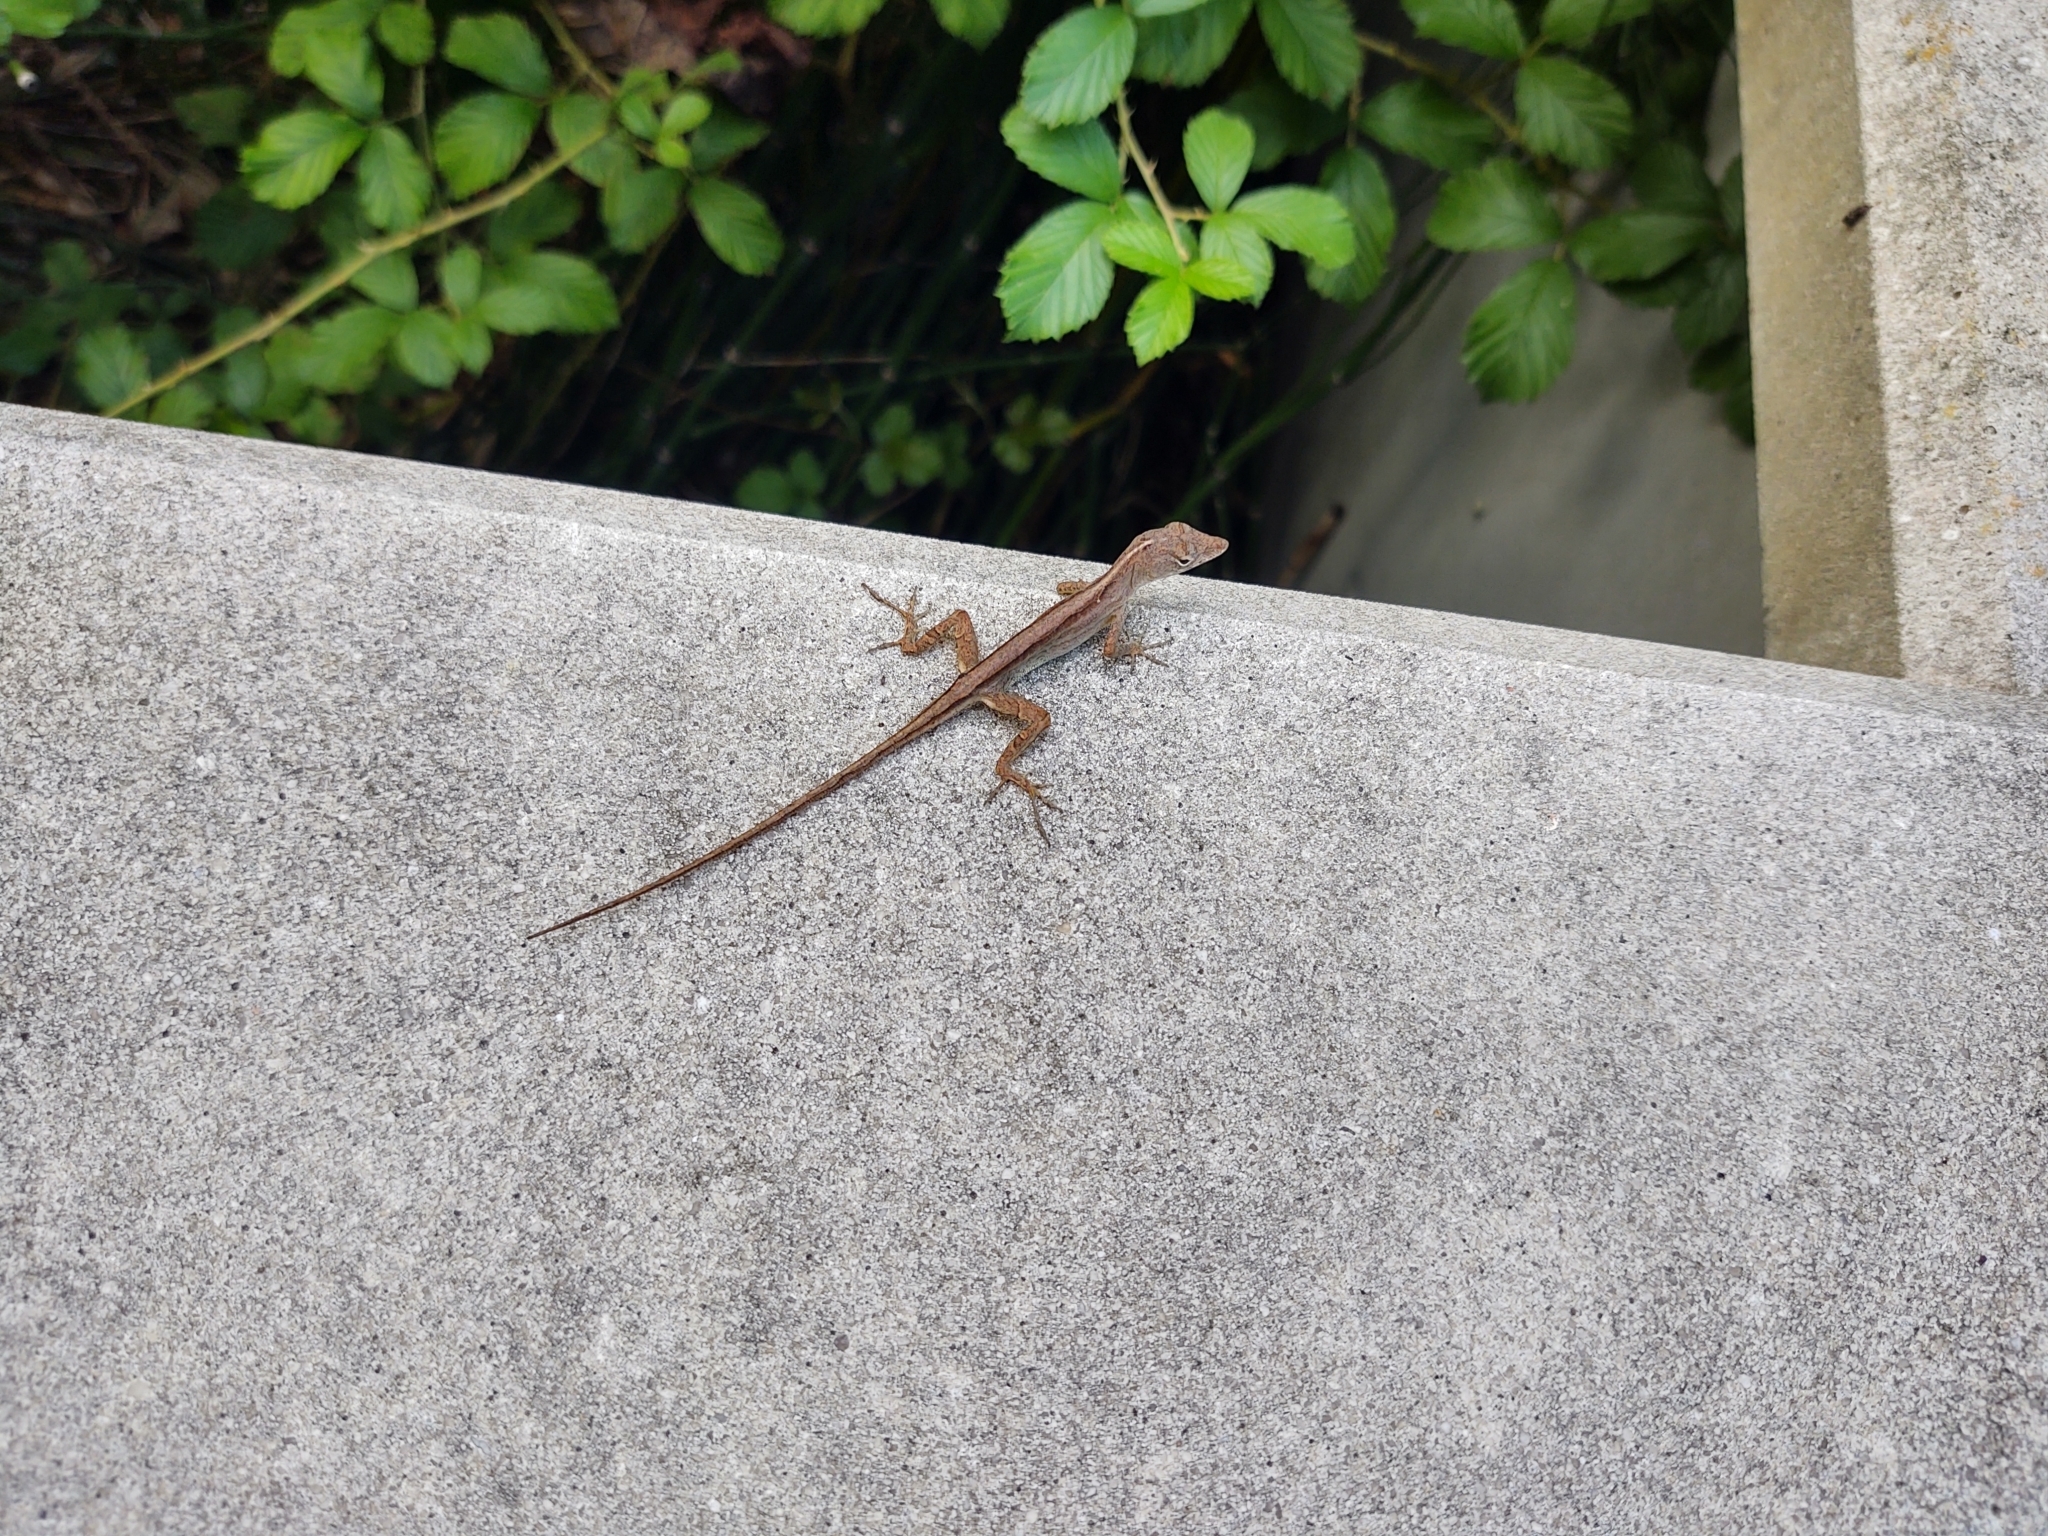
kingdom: Animalia
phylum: Chordata
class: Squamata
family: Dactyloidae
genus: Anolis
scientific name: Anolis sagrei
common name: Brown anole
